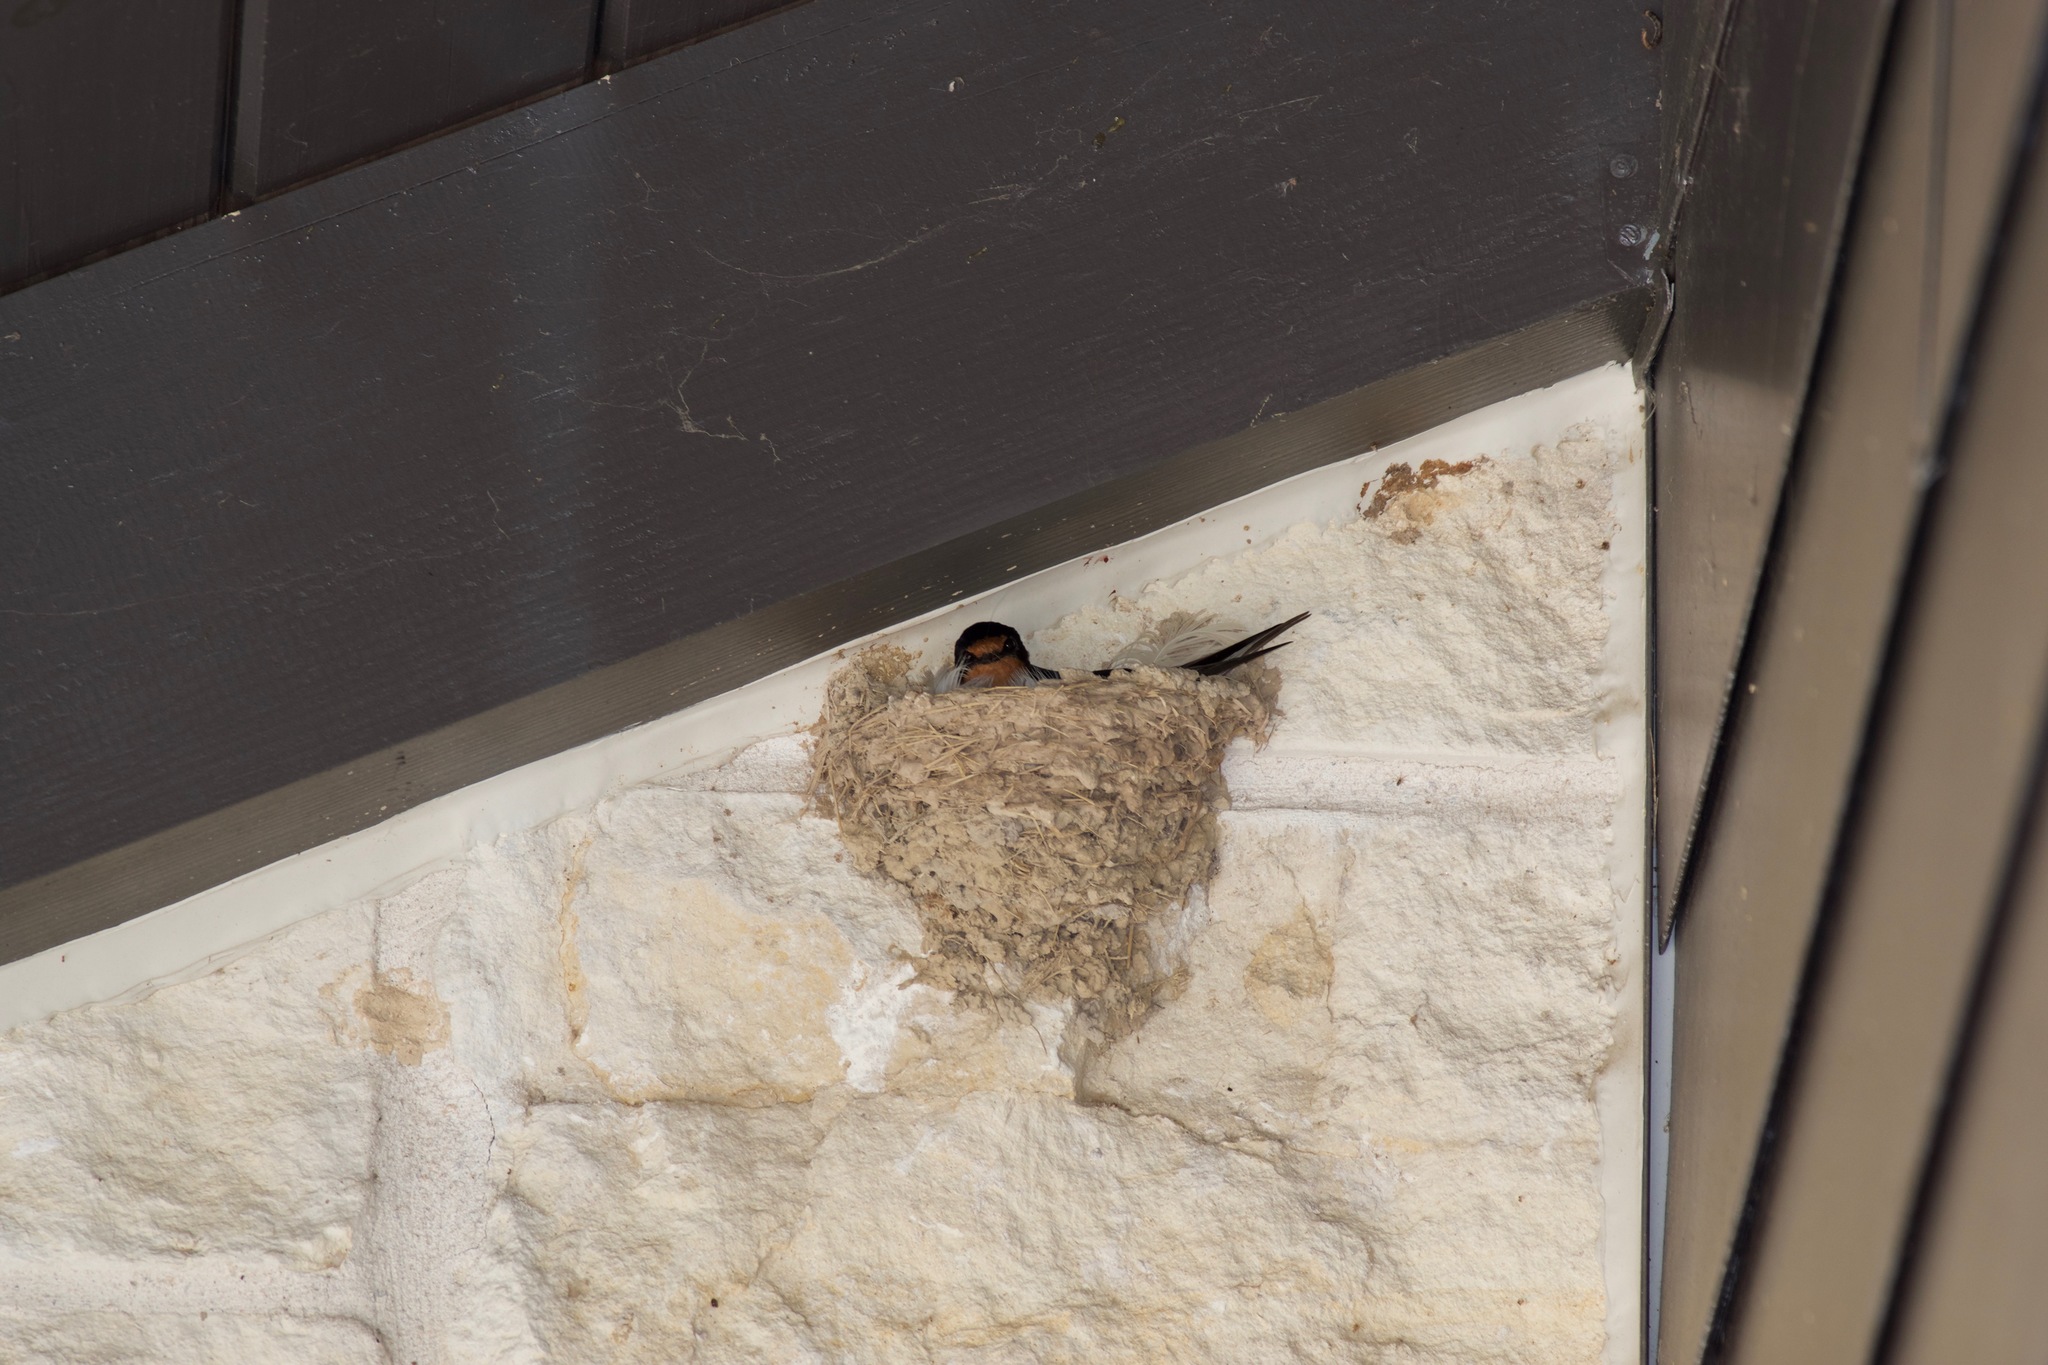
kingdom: Animalia
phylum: Chordata
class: Aves
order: Passeriformes
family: Hirundinidae
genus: Hirundo
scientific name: Hirundo rustica
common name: Barn swallow
